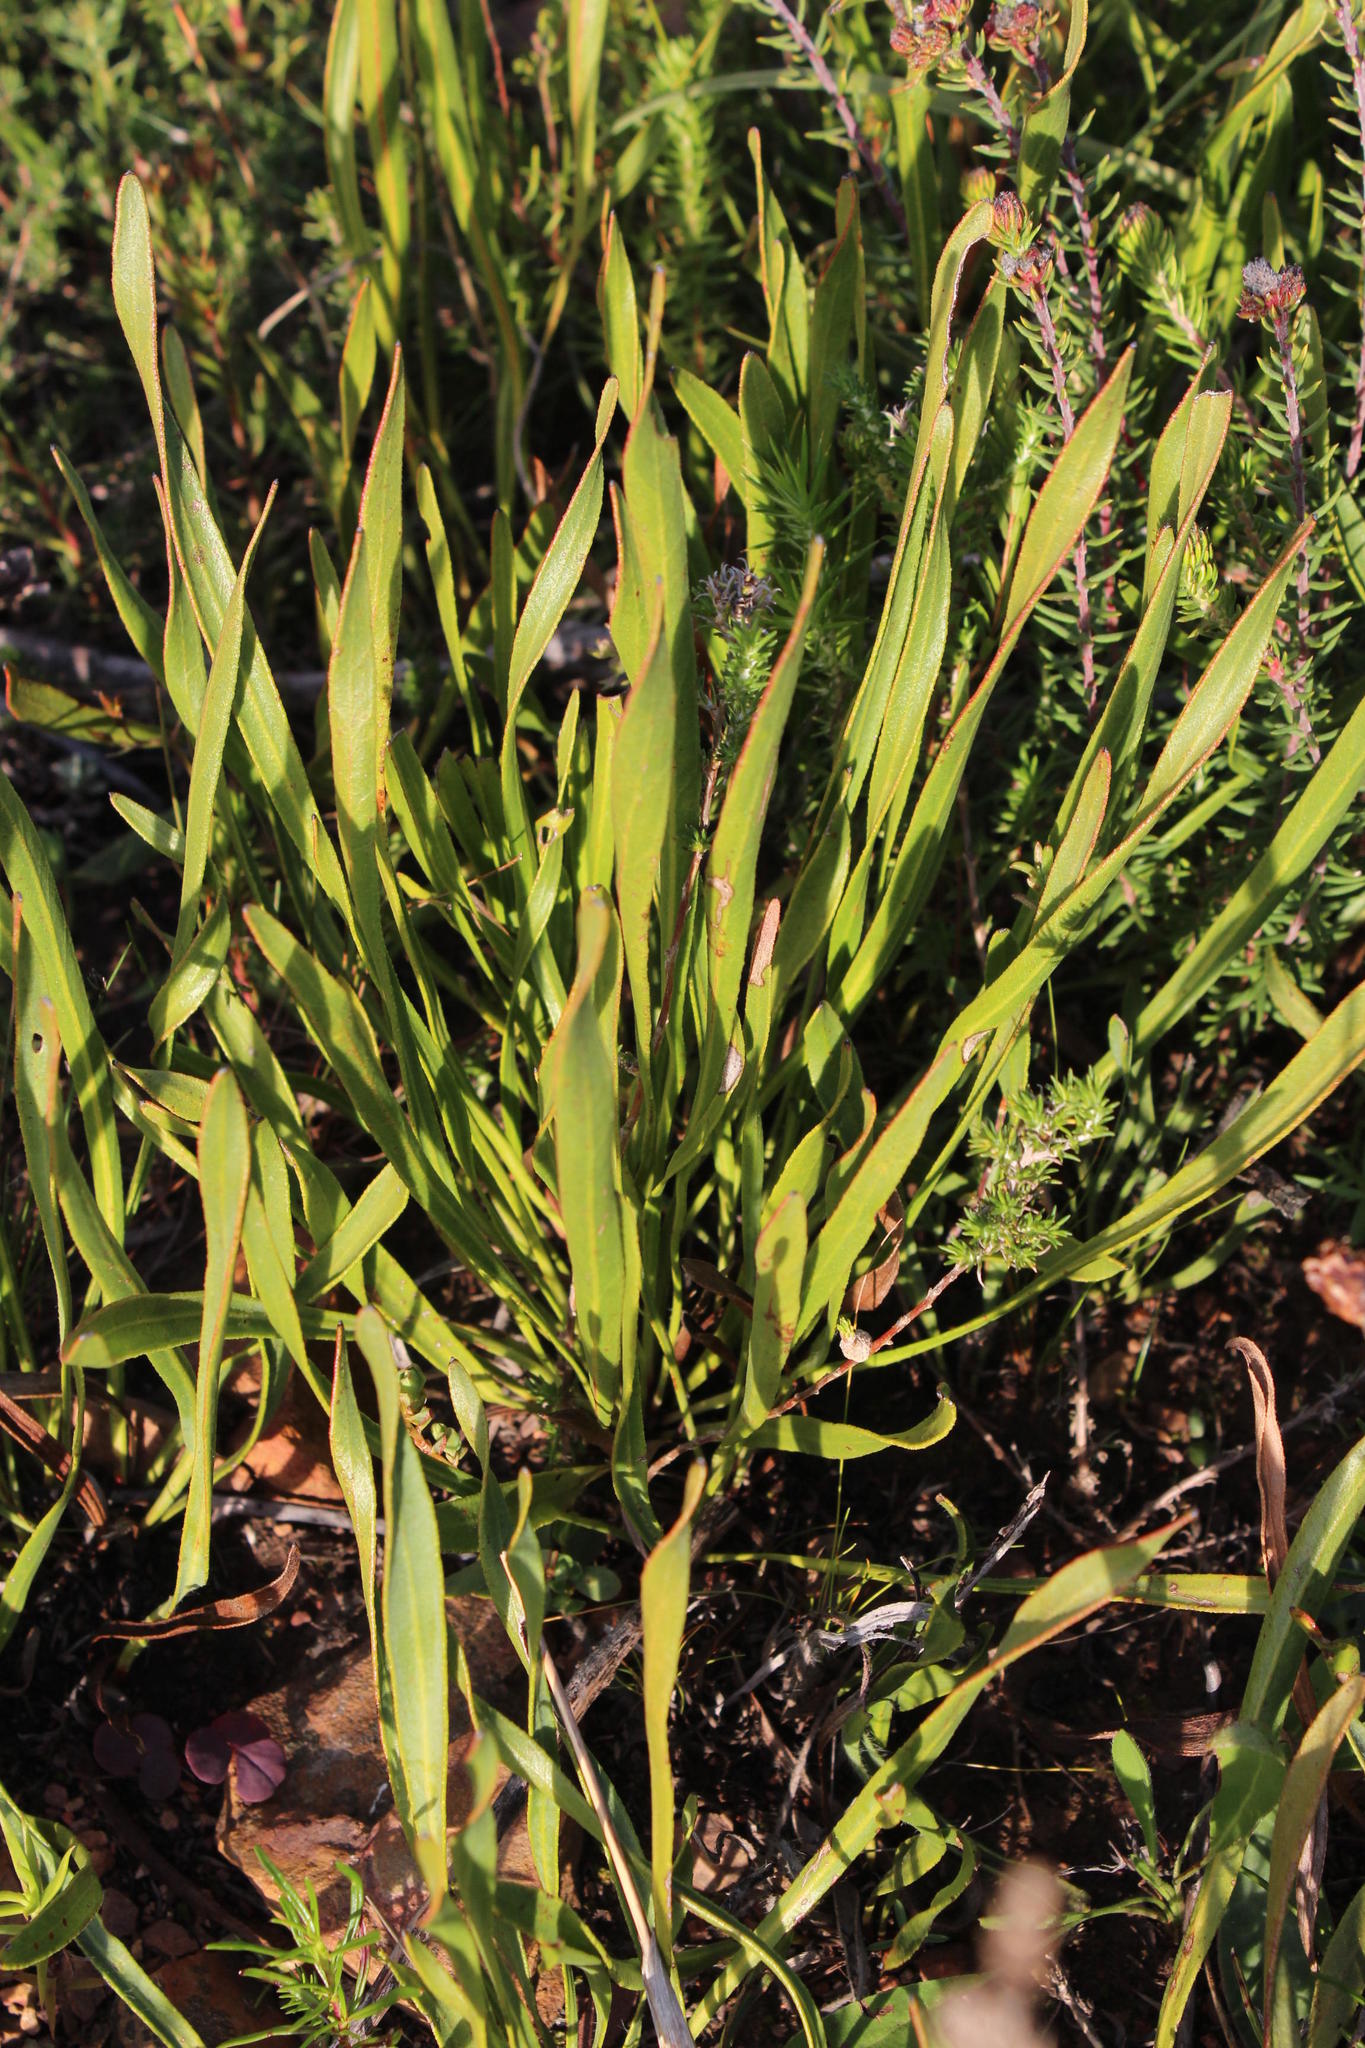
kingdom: Plantae
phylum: Tracheophyta
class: Magnoliopsida
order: Proteales
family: Proteaceae
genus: Protea
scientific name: Protea scabra
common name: Sandpaper-leaf sugarbush
